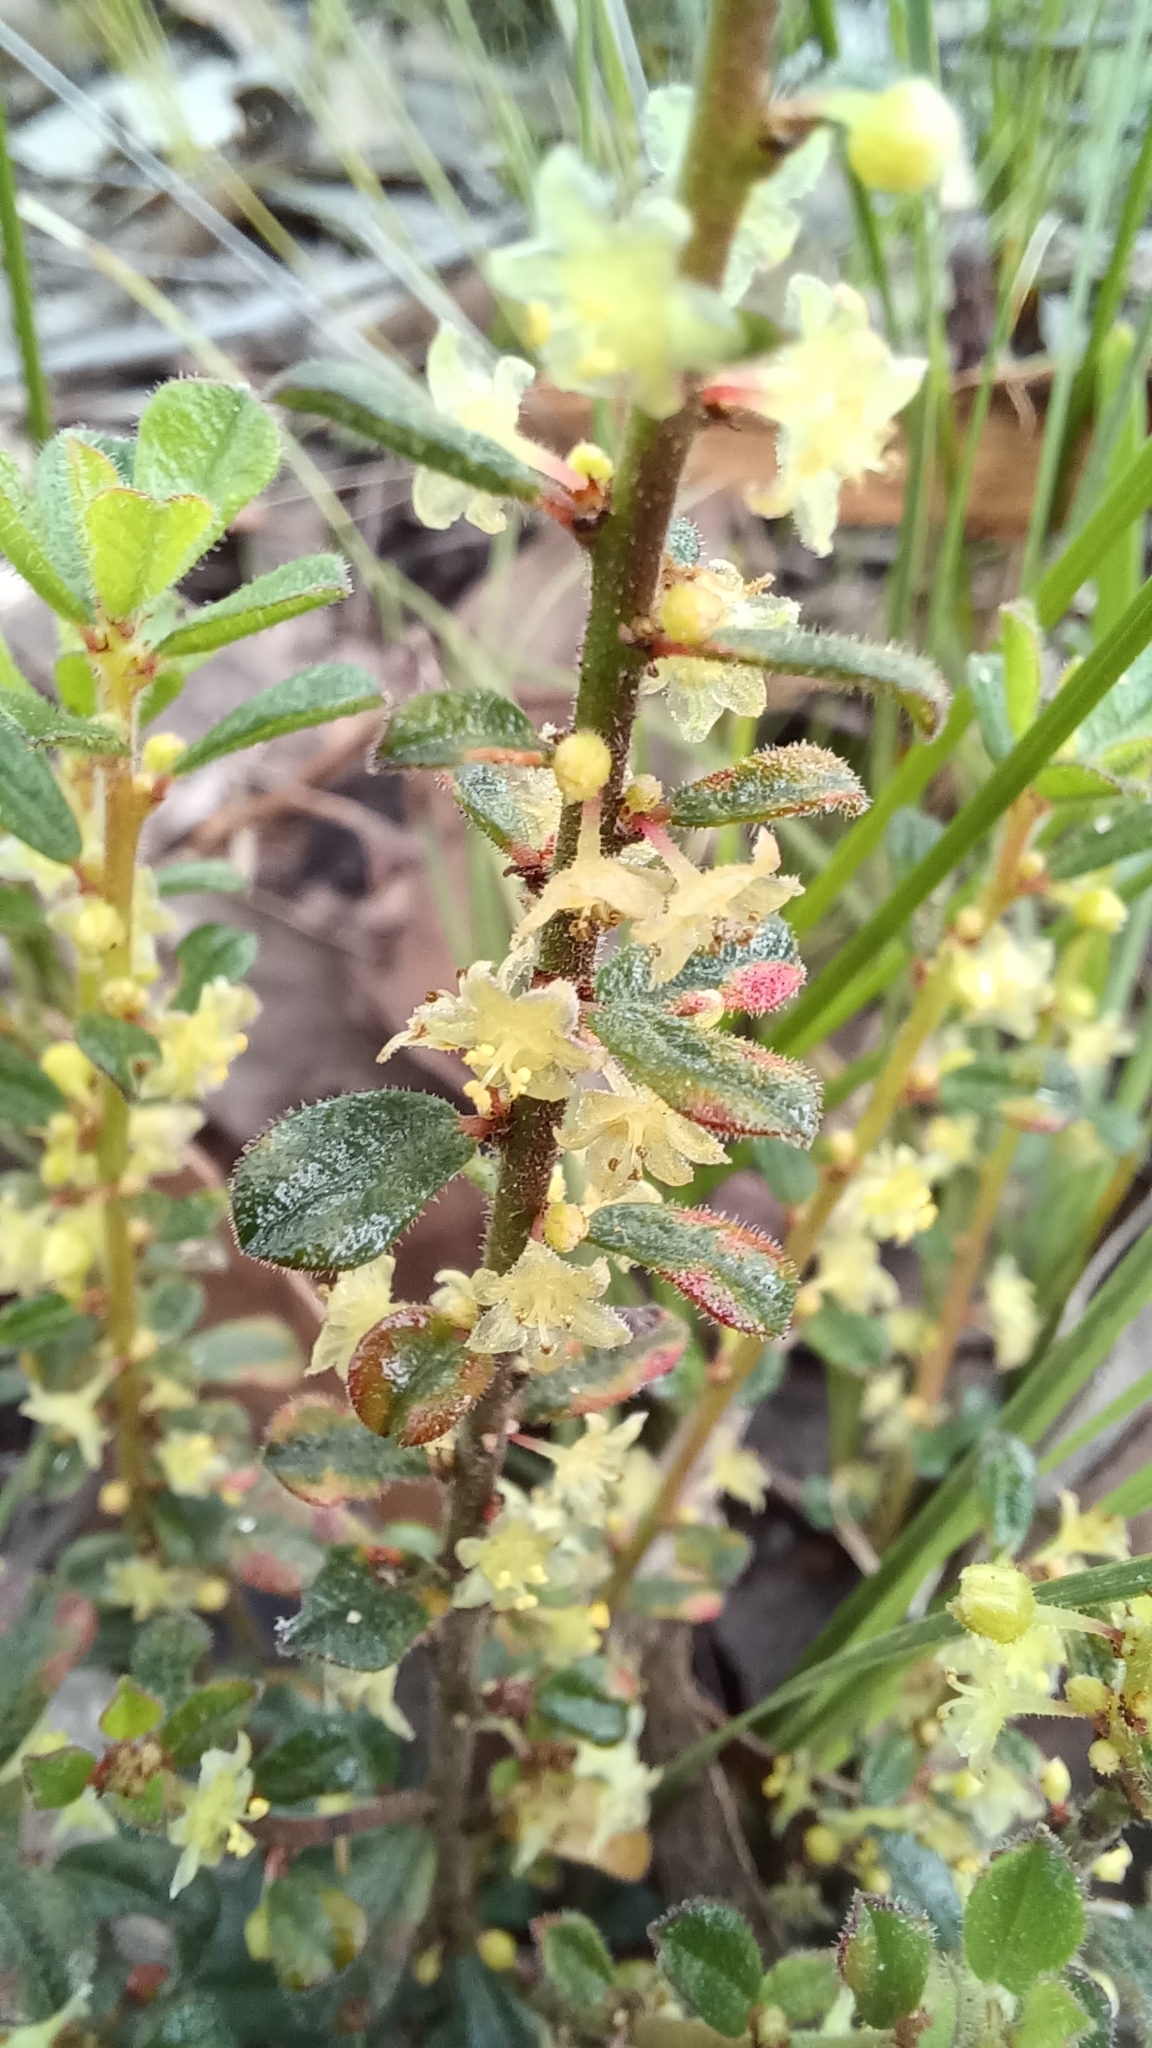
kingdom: Plantae
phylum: Tracheophyta
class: Magnoliopsida
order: Malpighiales
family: Phyllanthaceae
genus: Phyllanthus
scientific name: Phyllanthus hirtellus
